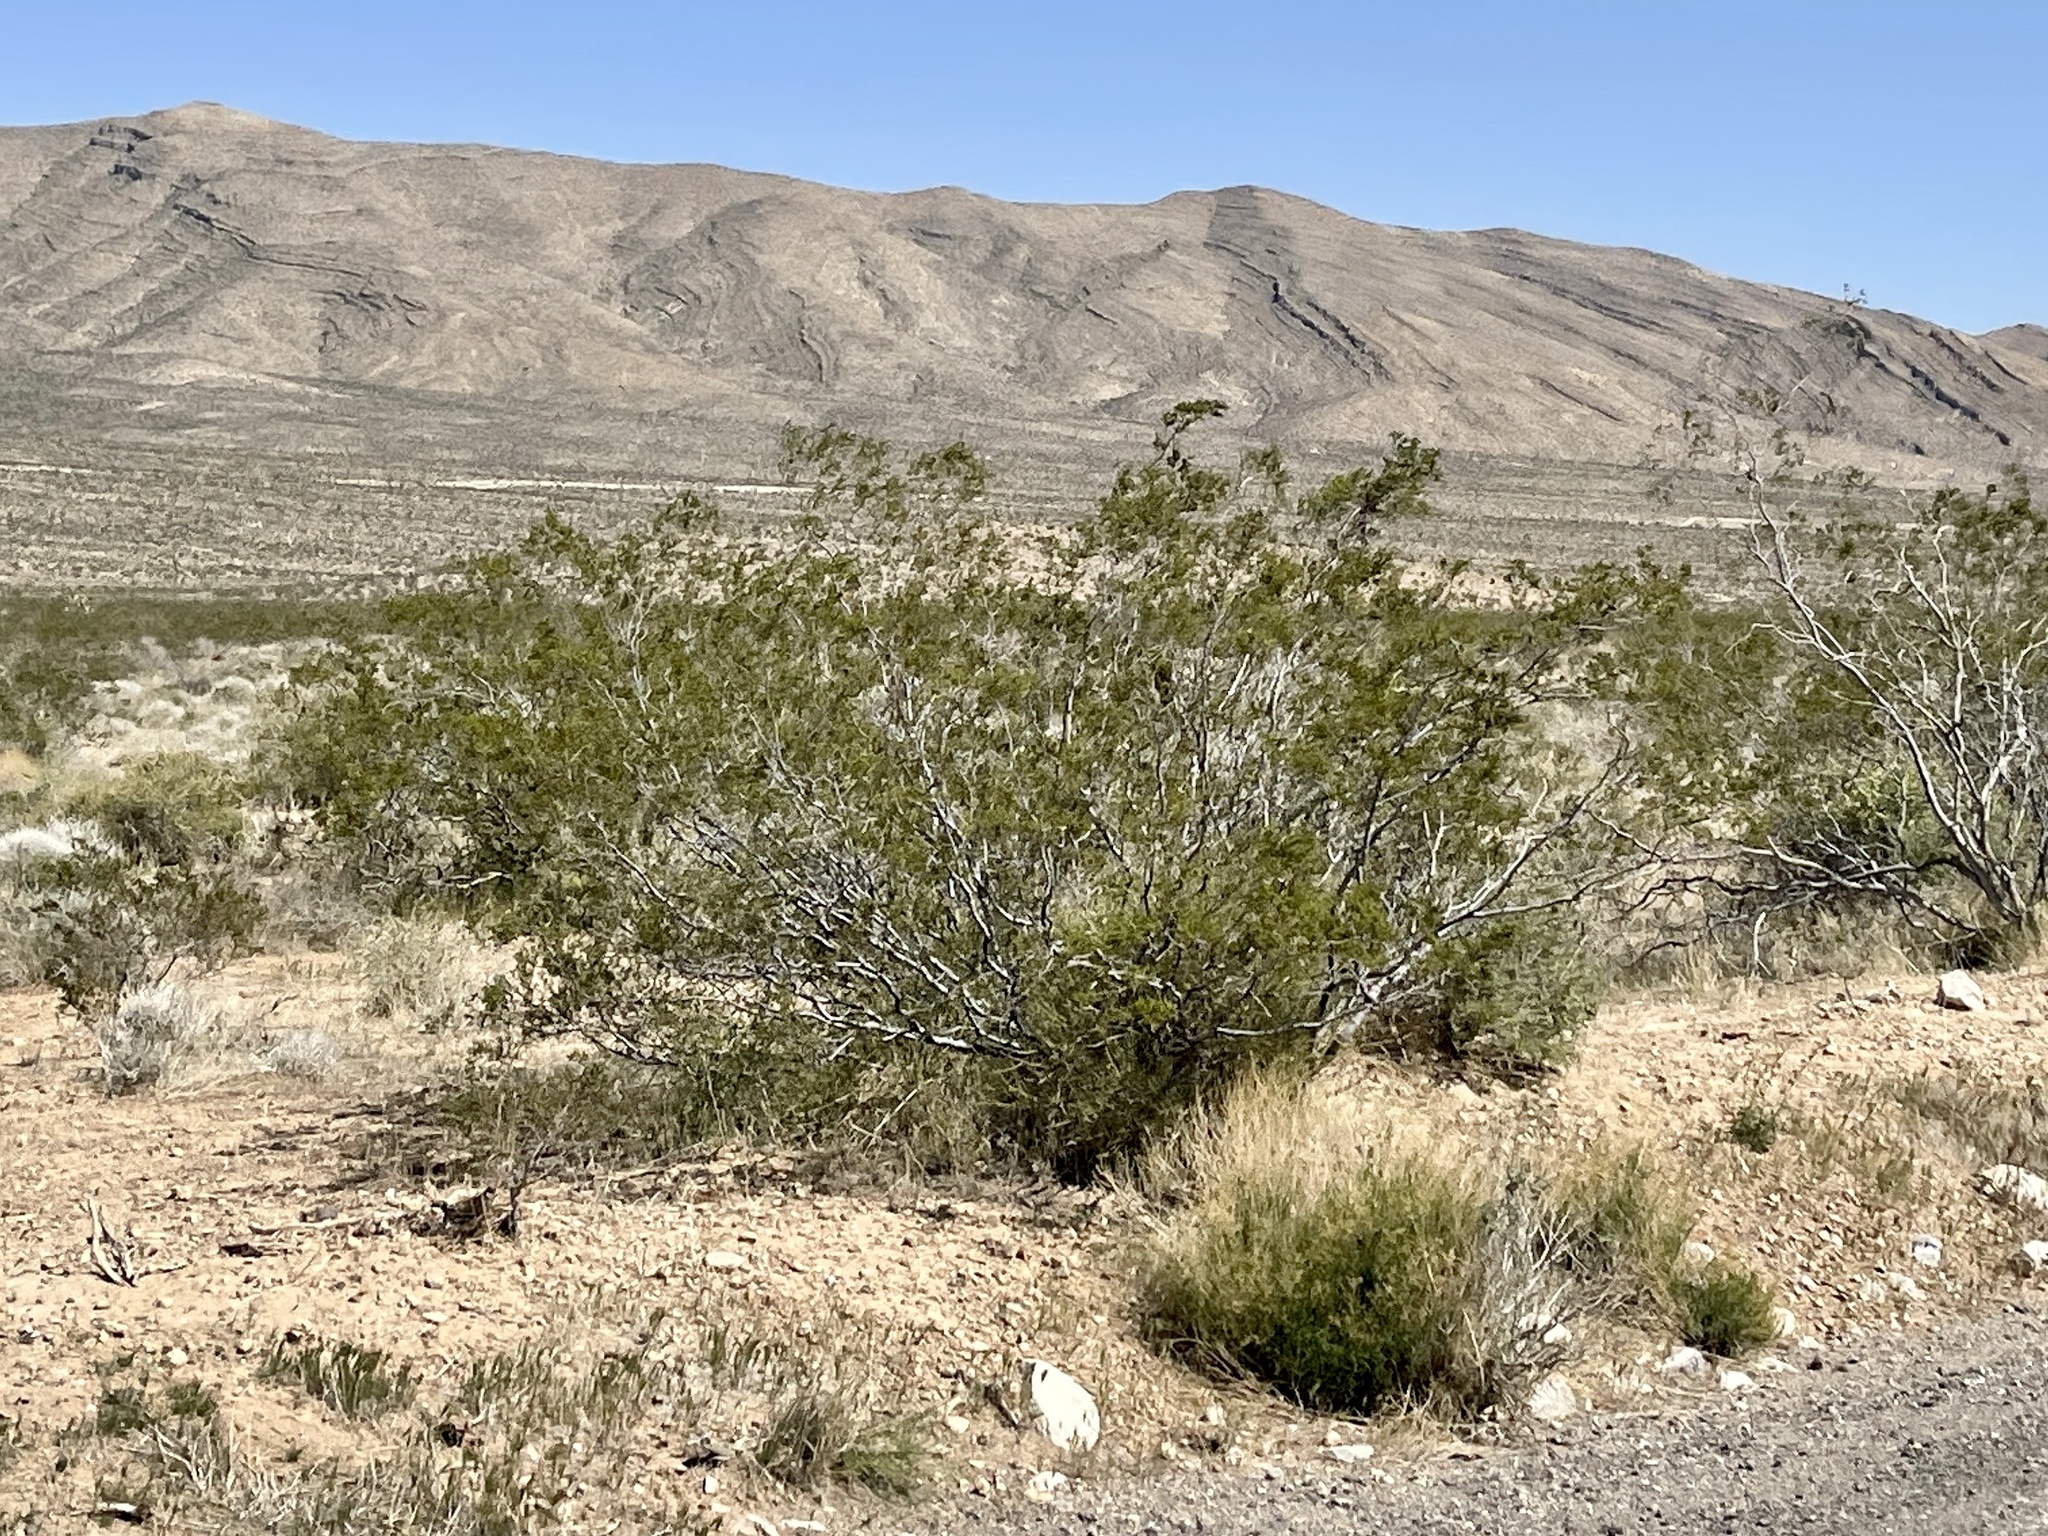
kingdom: Plantae
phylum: Tracheophyta
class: Magnoliopsida
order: Zygophyllales
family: Zygophyllaceae
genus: Larrea
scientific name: Larrea tridentata
